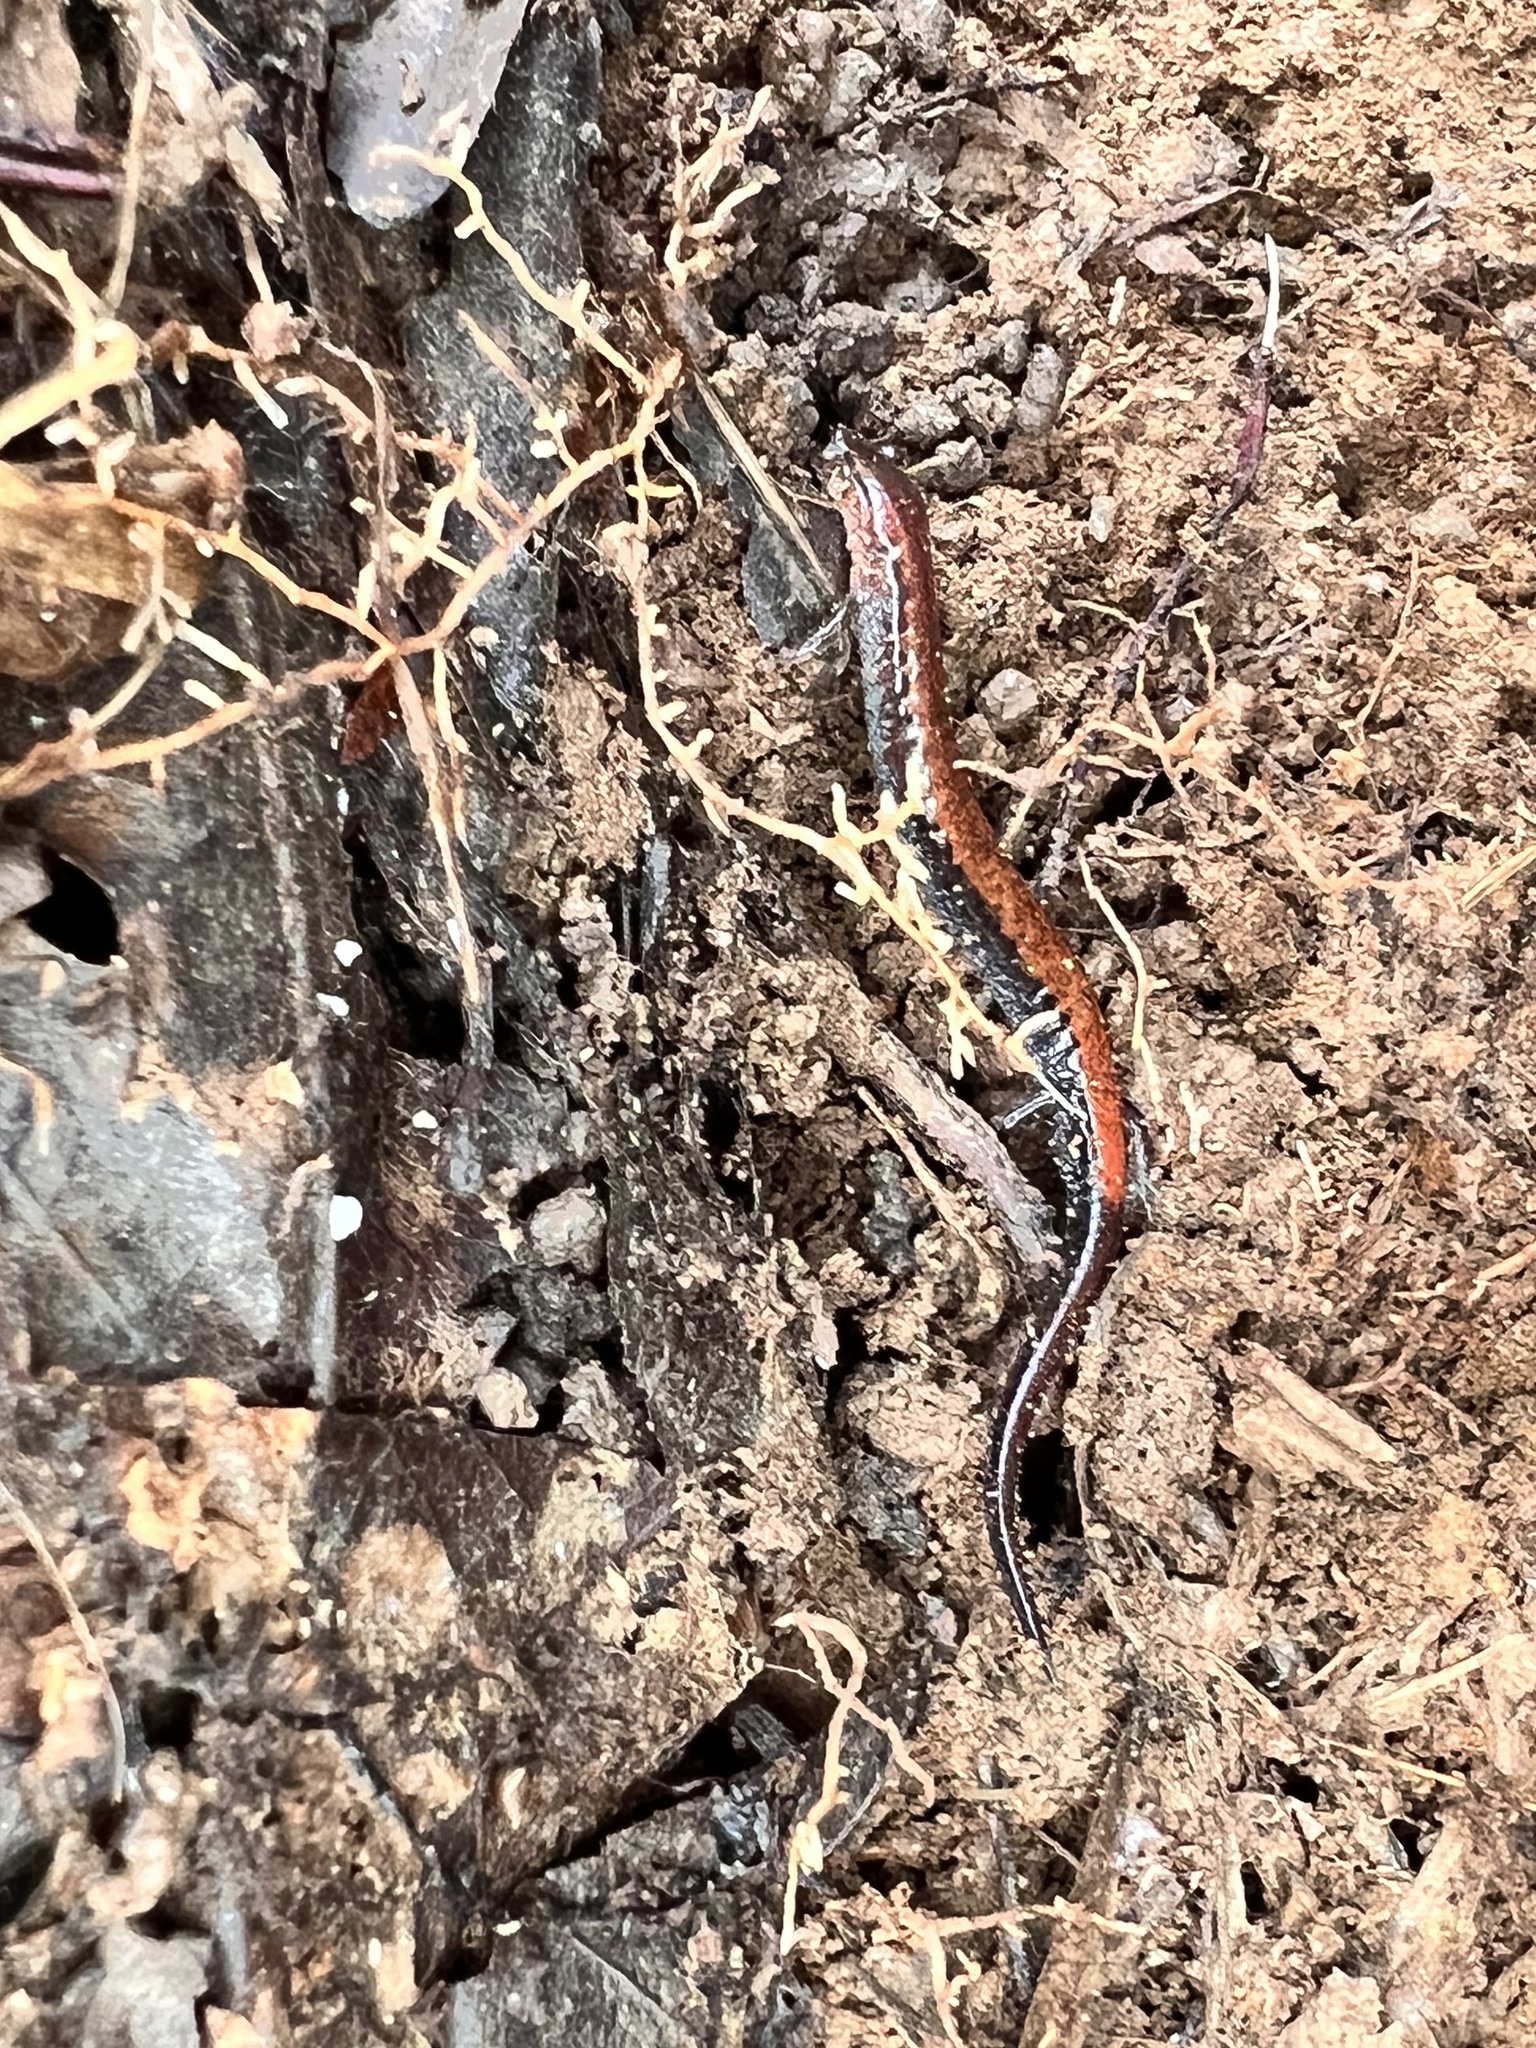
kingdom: Animalia
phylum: Chordata
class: Amphibia
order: Caudata
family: Plethodontidae
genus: Plethodon
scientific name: Plethodon cinereus
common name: Redback salamander
